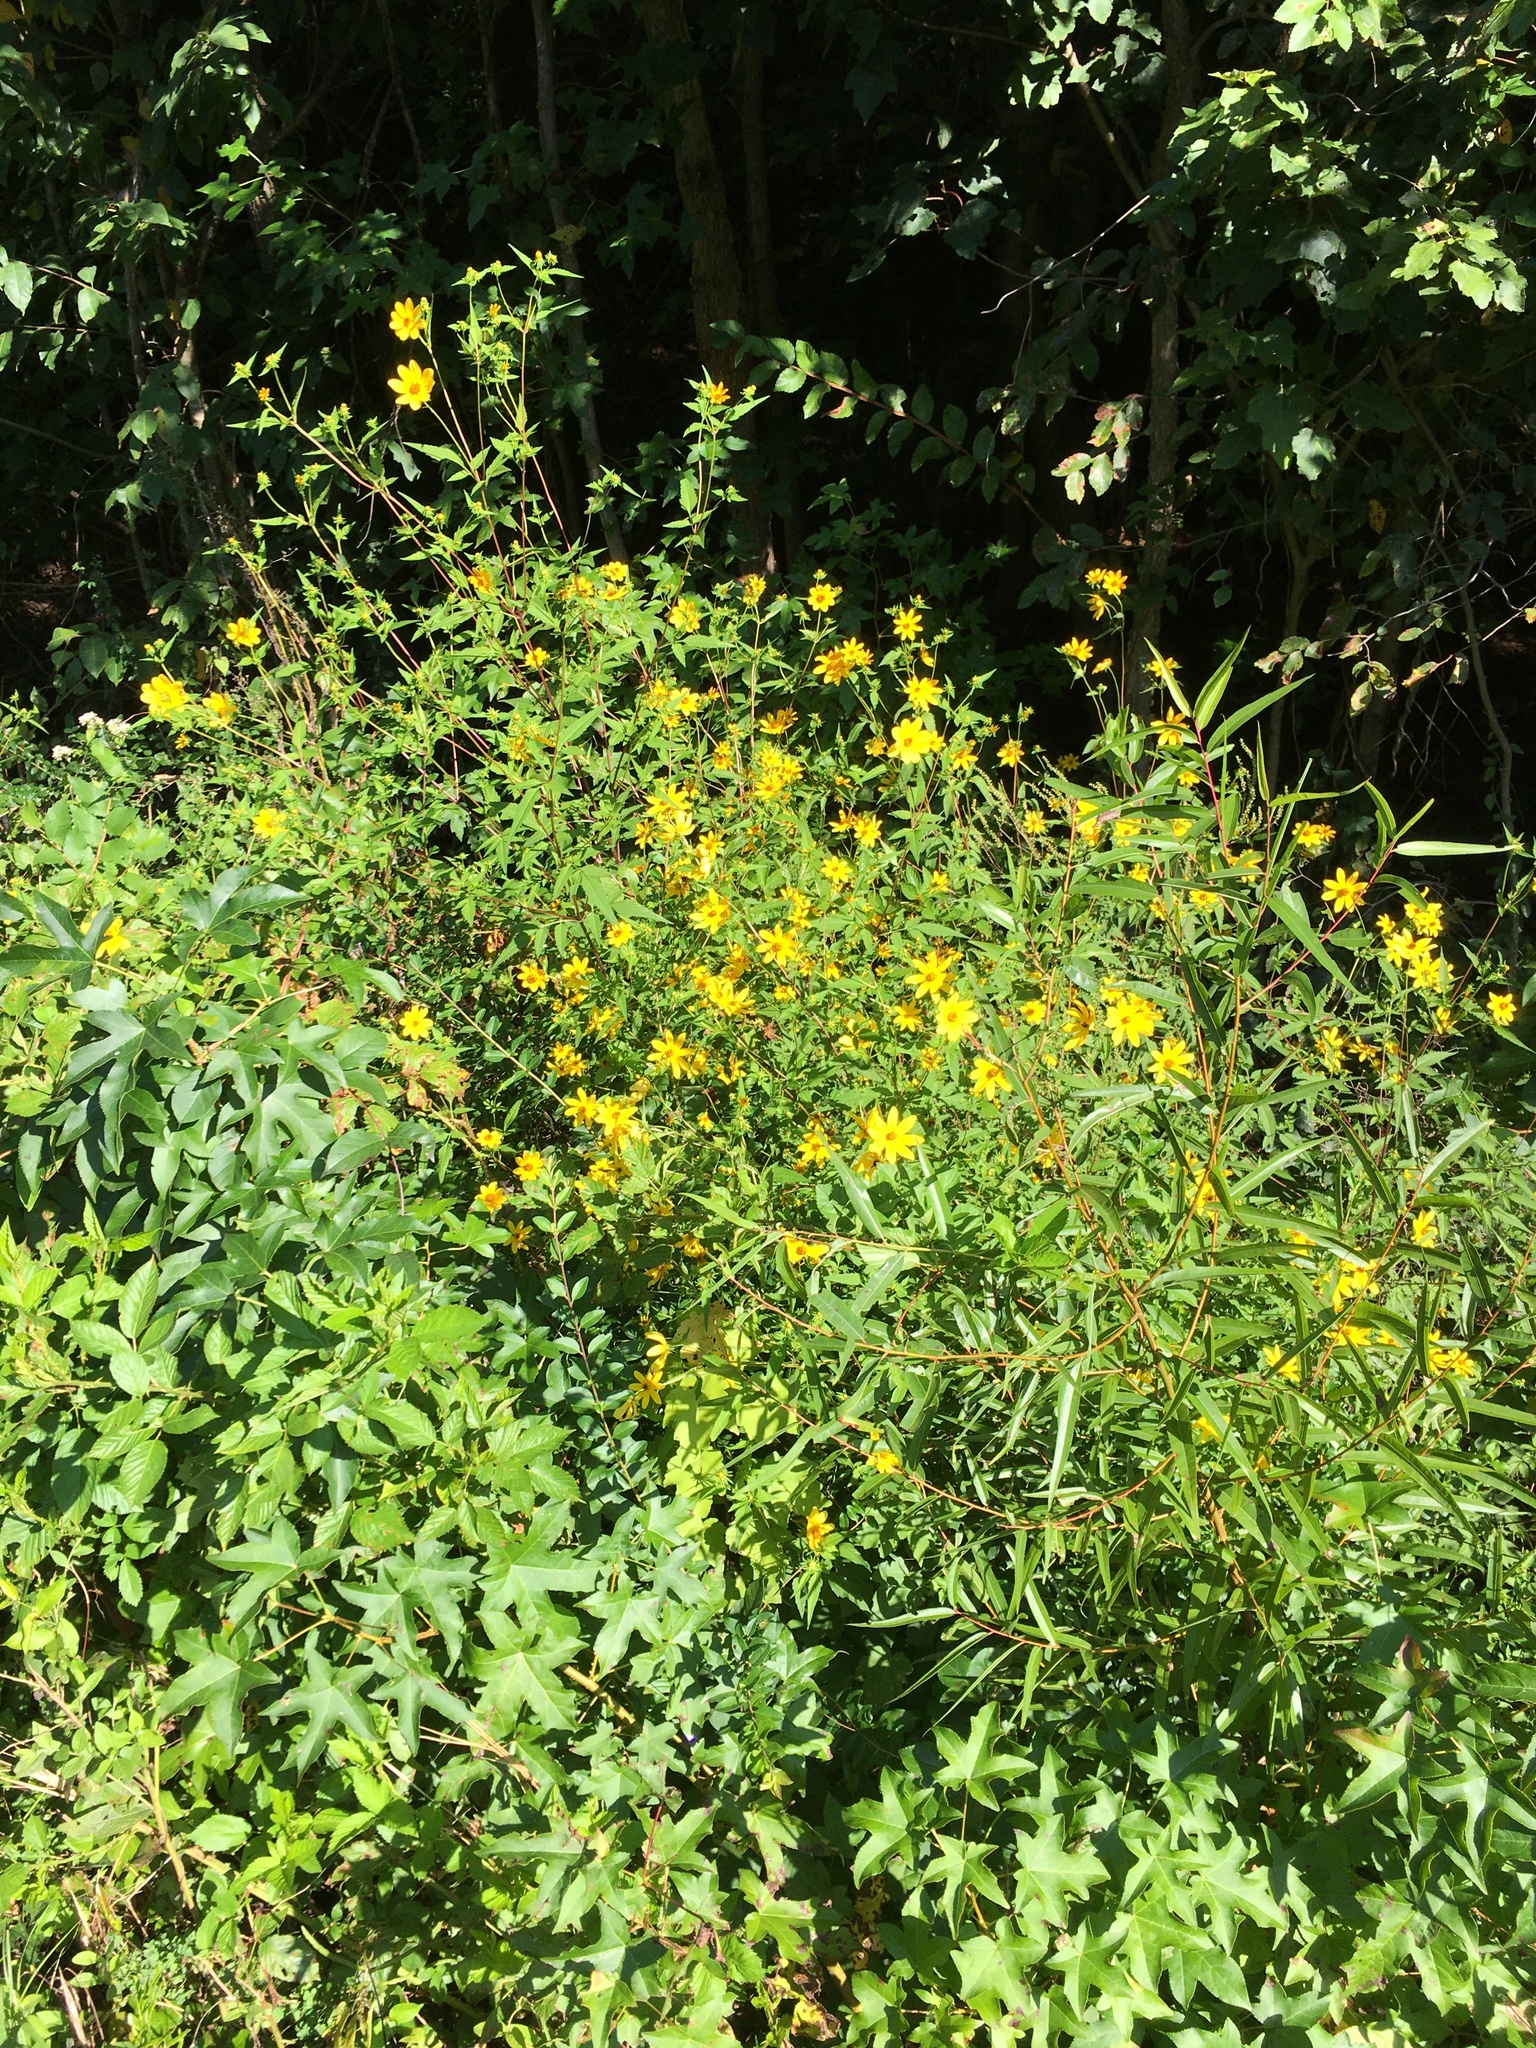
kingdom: Plantae
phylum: Tracheophyta
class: Magnoliopsida
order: Asterales
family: Asteraceae
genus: Bidens
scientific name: Bidens aristosa
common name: Western tickseed
